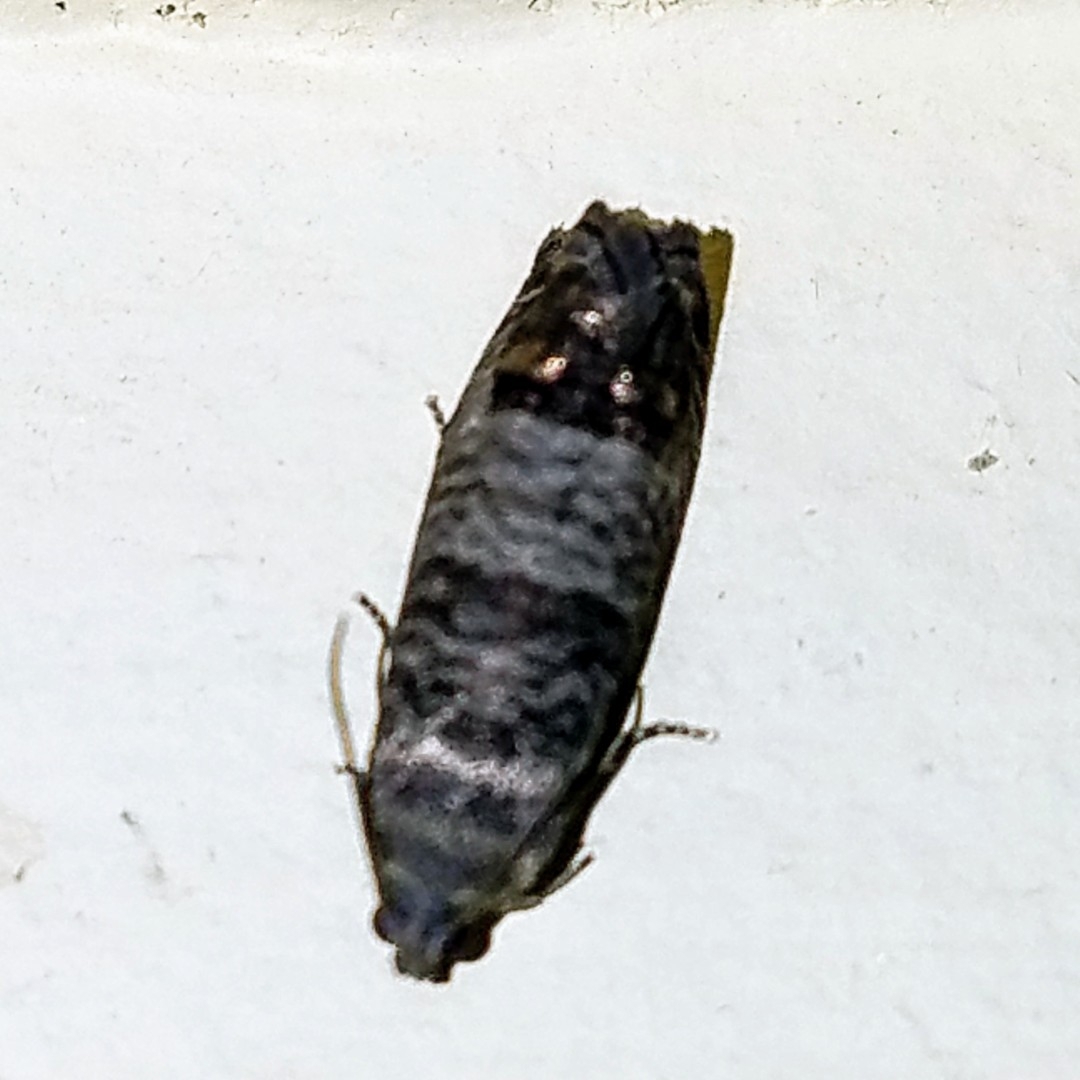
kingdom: Animalia
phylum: Arthropoda
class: Insecta
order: Lepidoptera
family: Tortricidae
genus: Cydia
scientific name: Cydia pomonella
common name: Codling moth
